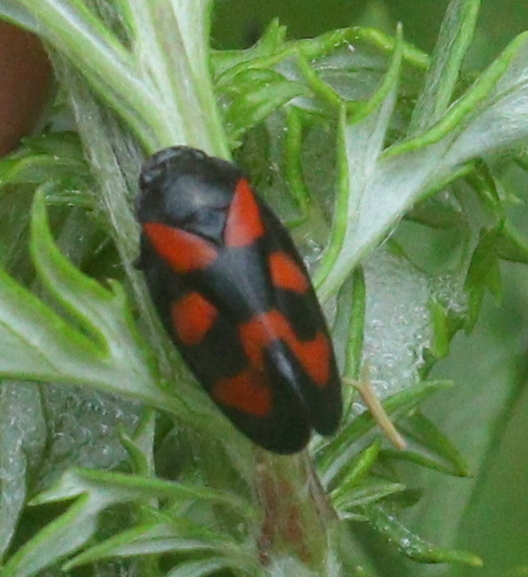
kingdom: Animalia
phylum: Arthropoda
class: Insecta
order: Hemiptera
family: Cercopidae
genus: Cercopis
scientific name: Cercopis vulnerata
